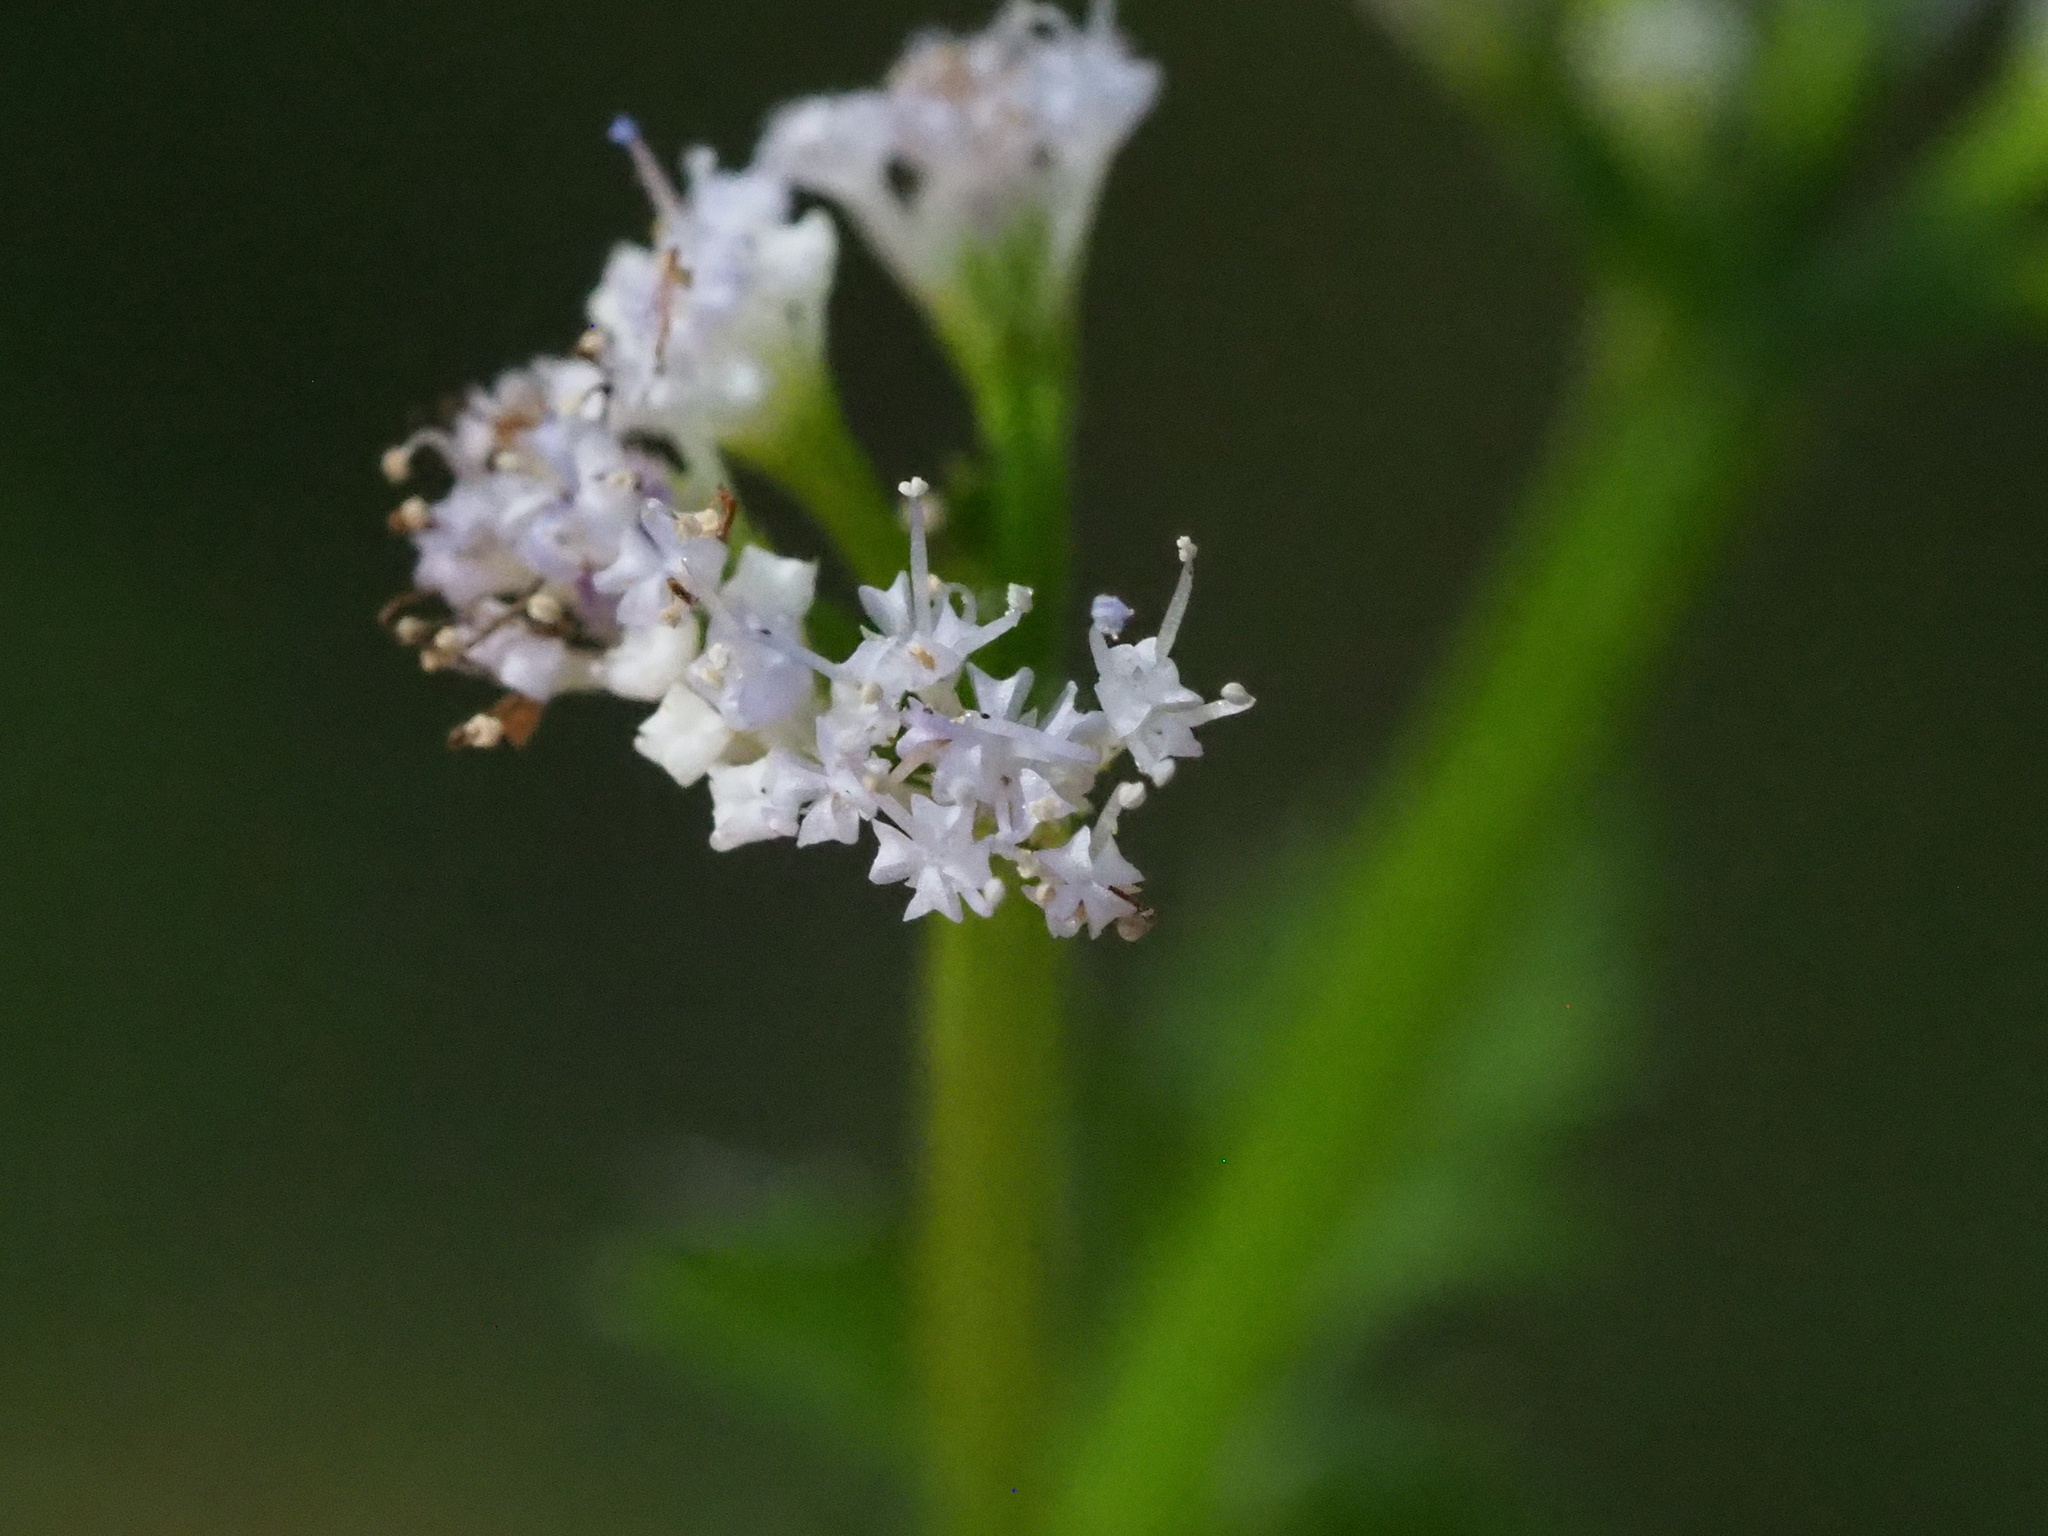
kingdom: Plantae
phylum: Tracheophyta
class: Magnoliopsida
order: Apiales
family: Apiaceae
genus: Sanicula
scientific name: Sanicula petagnioides
